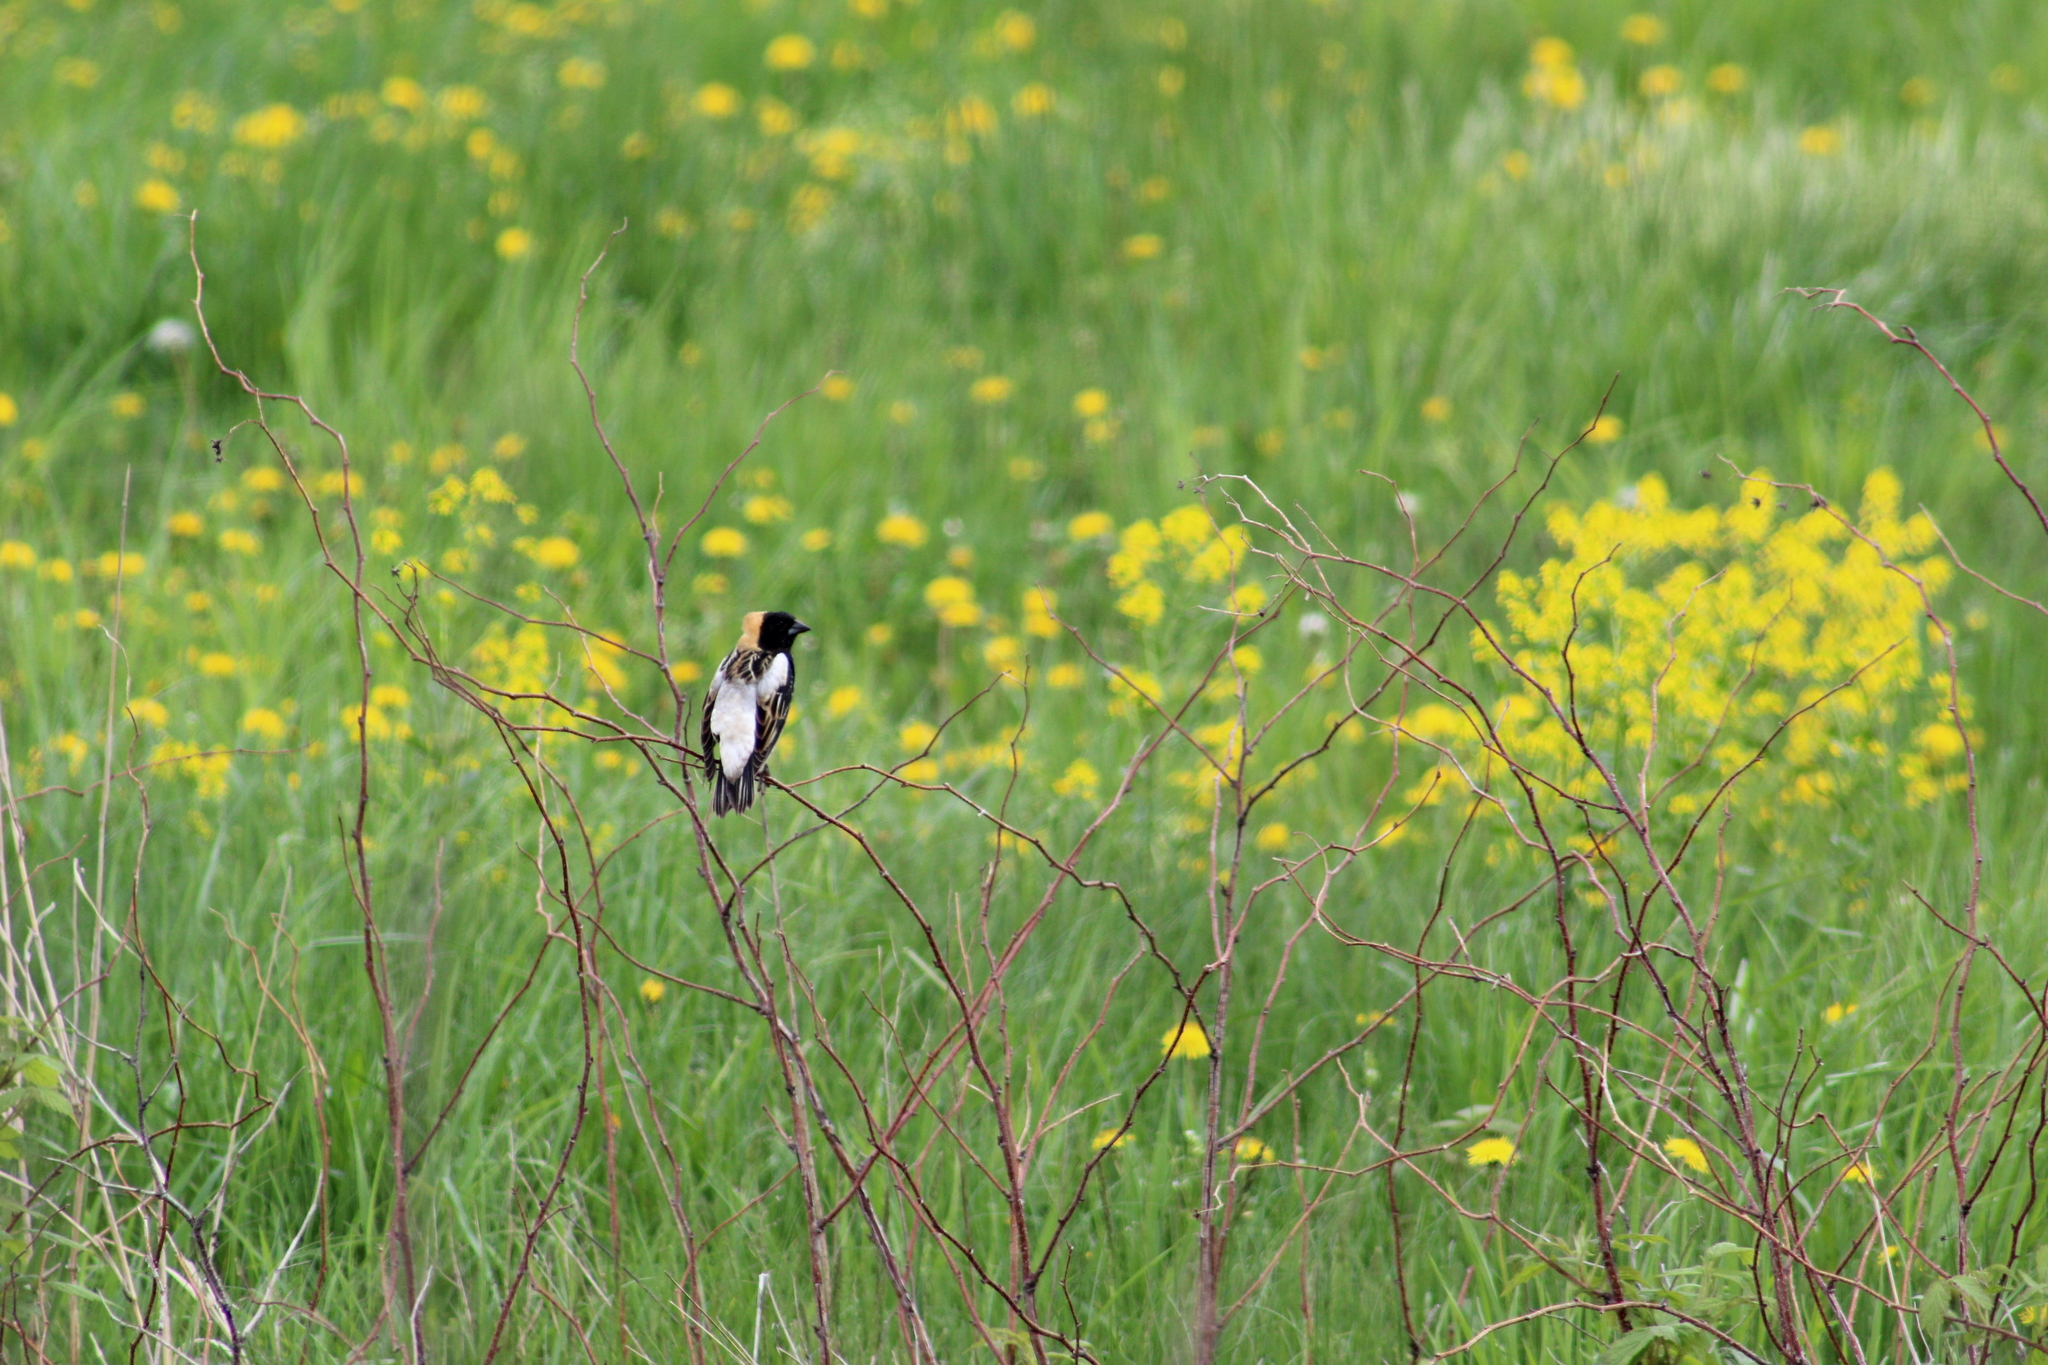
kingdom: Animalia
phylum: Chordata
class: Aves
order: Passeriformes
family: Icteridae
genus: Dolichonyx
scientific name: Dolichonyx oryzivorus
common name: Bobolink
